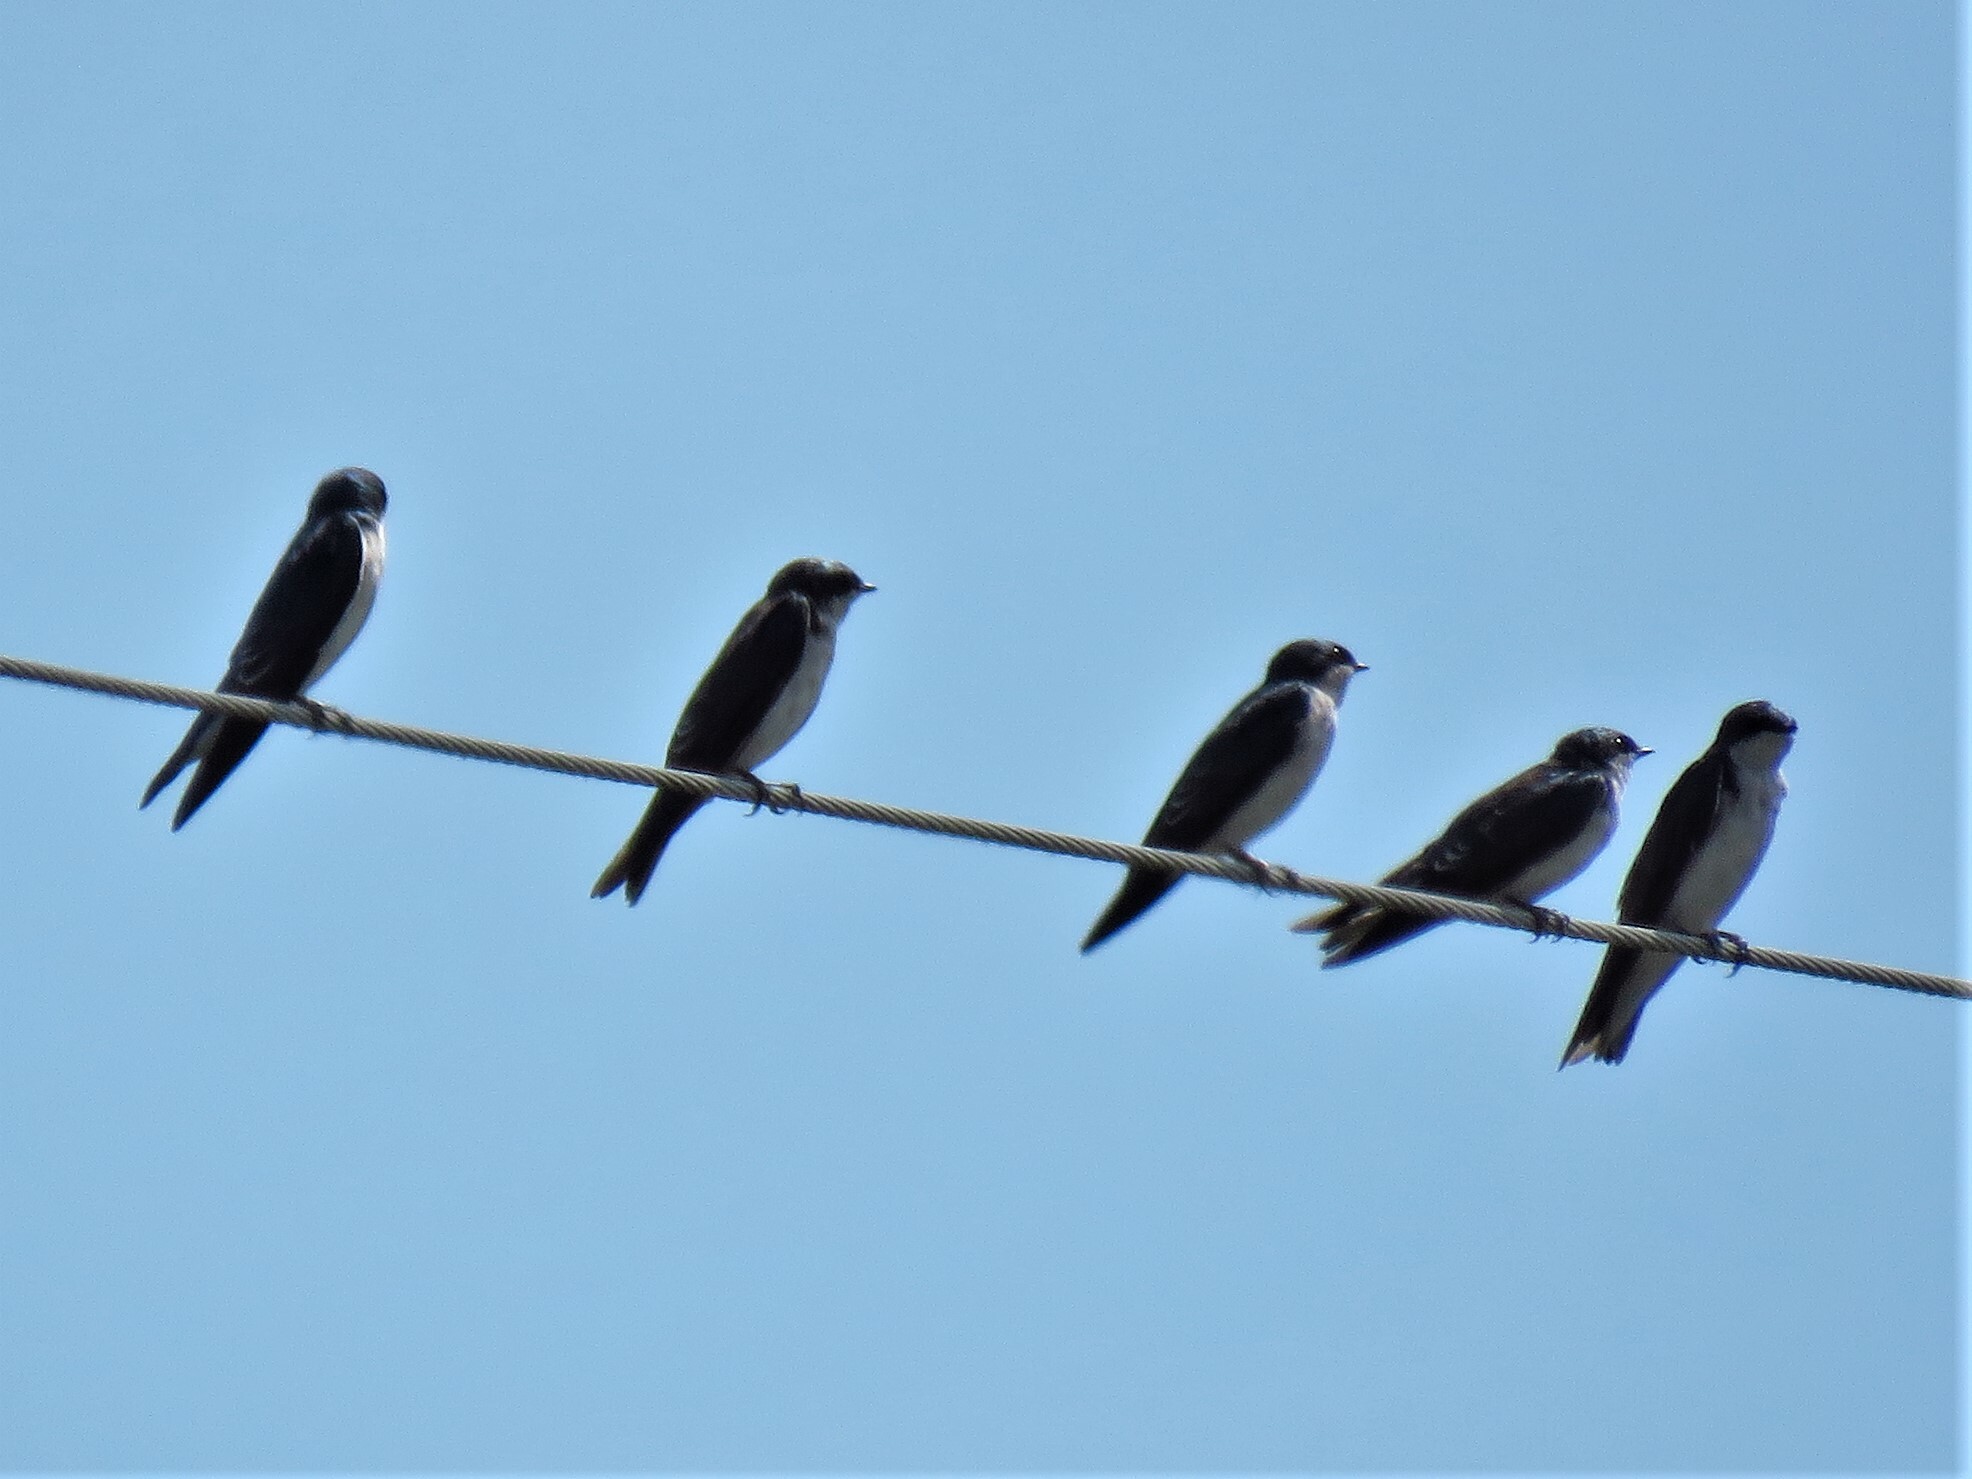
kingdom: Animalia
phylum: Chordata
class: Aves
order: Passeriformes
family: Hirundinidae
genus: Tachycineta
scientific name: Tachycineta bicolor
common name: Tree swallow
